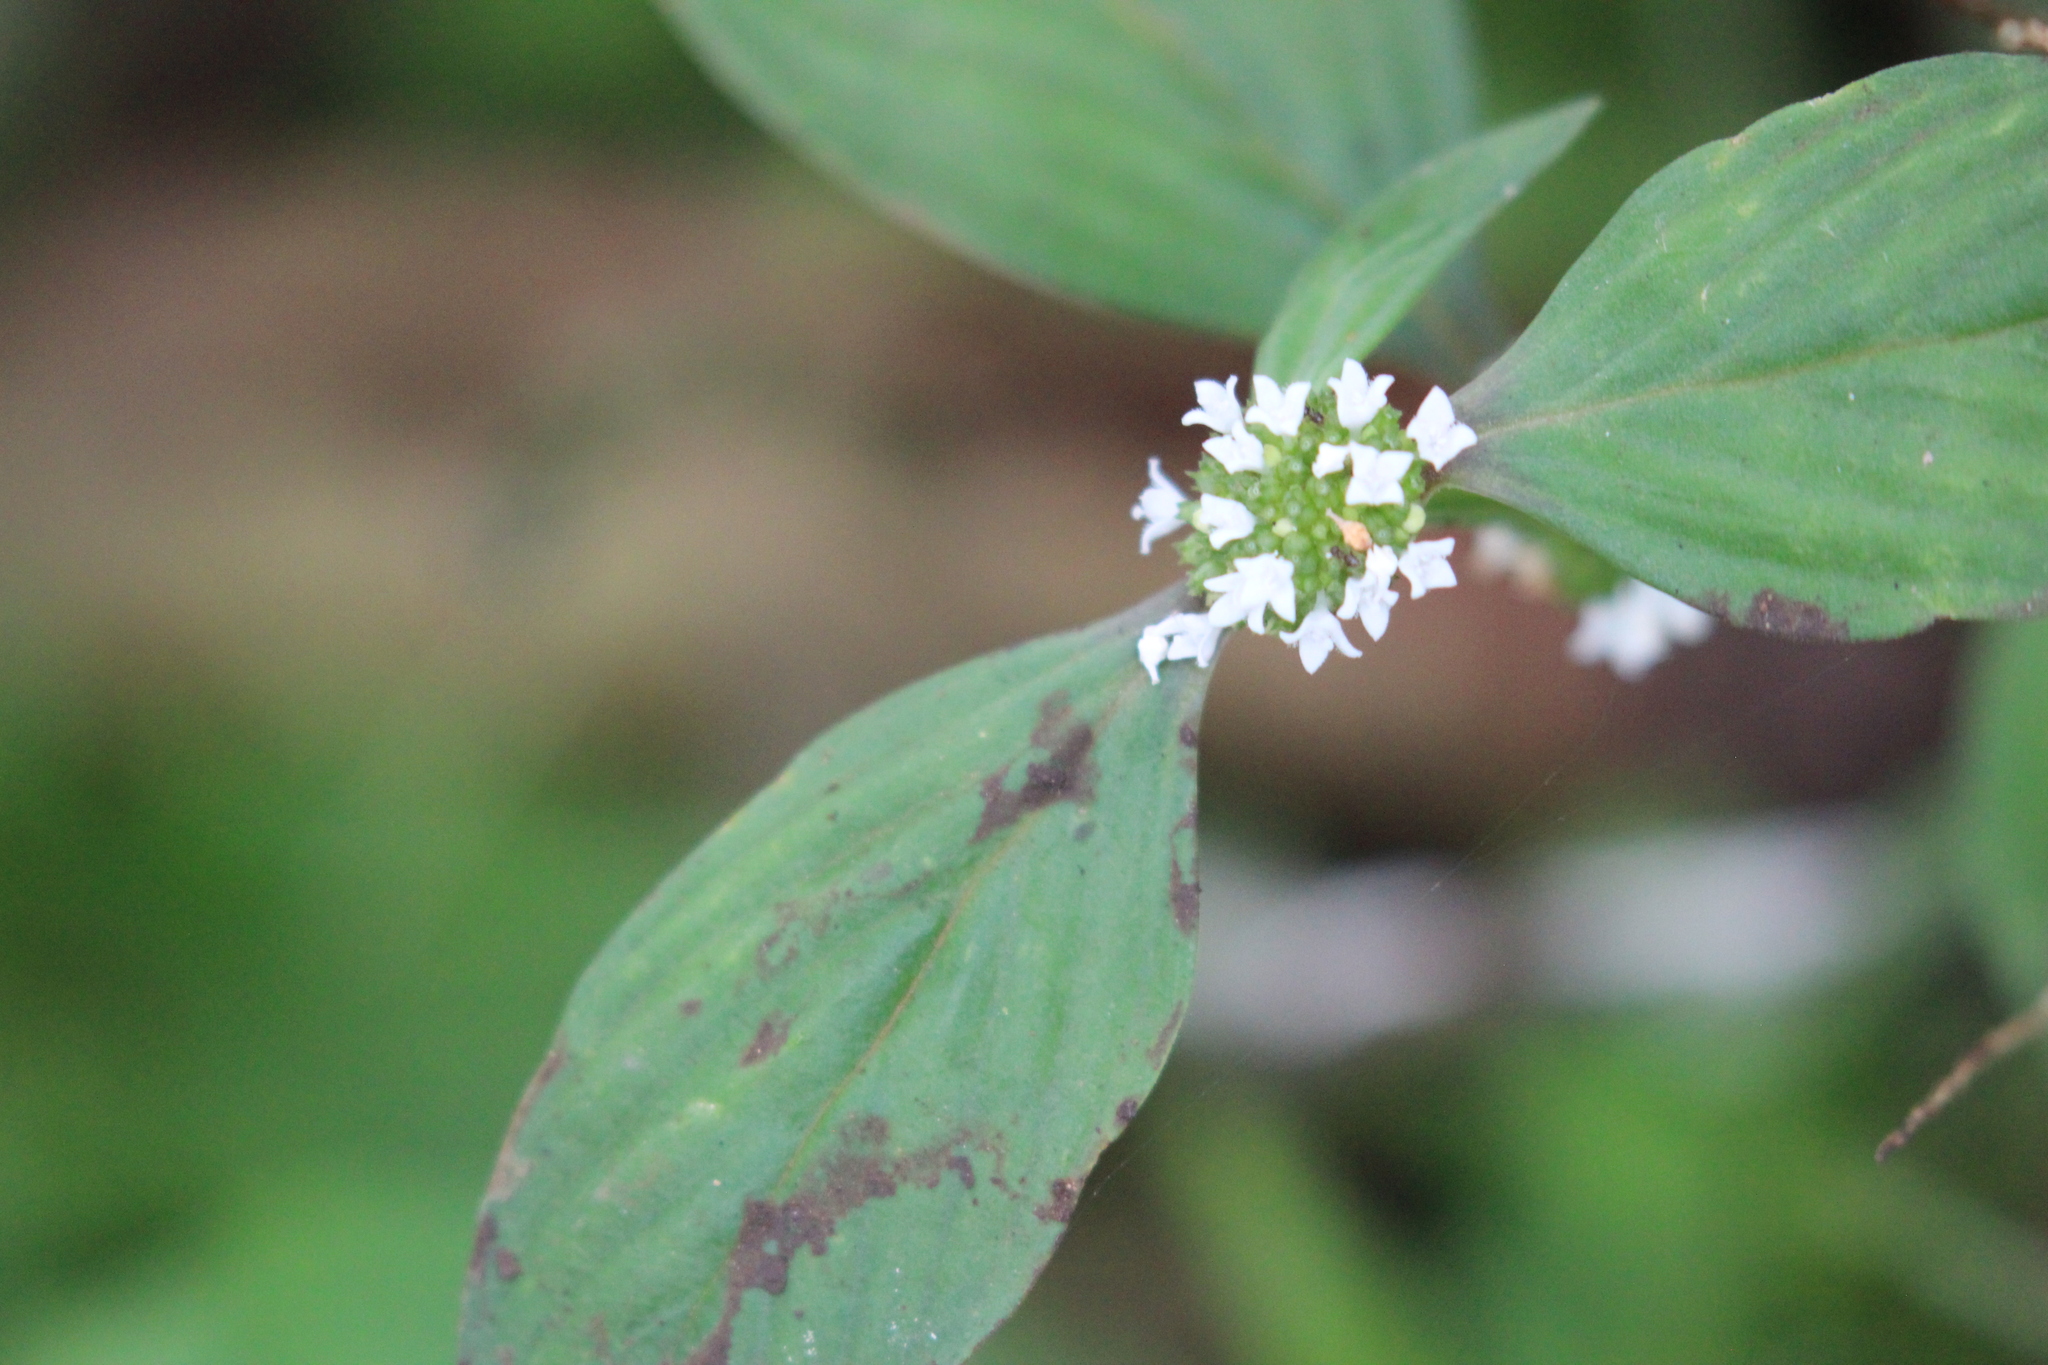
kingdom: Plantae
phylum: Tracheophyta
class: Magnoliopsida
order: Gentianales
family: Rubiaceae
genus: Spermacoce
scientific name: Spermacoce remota
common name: Woodland false buttonweed
